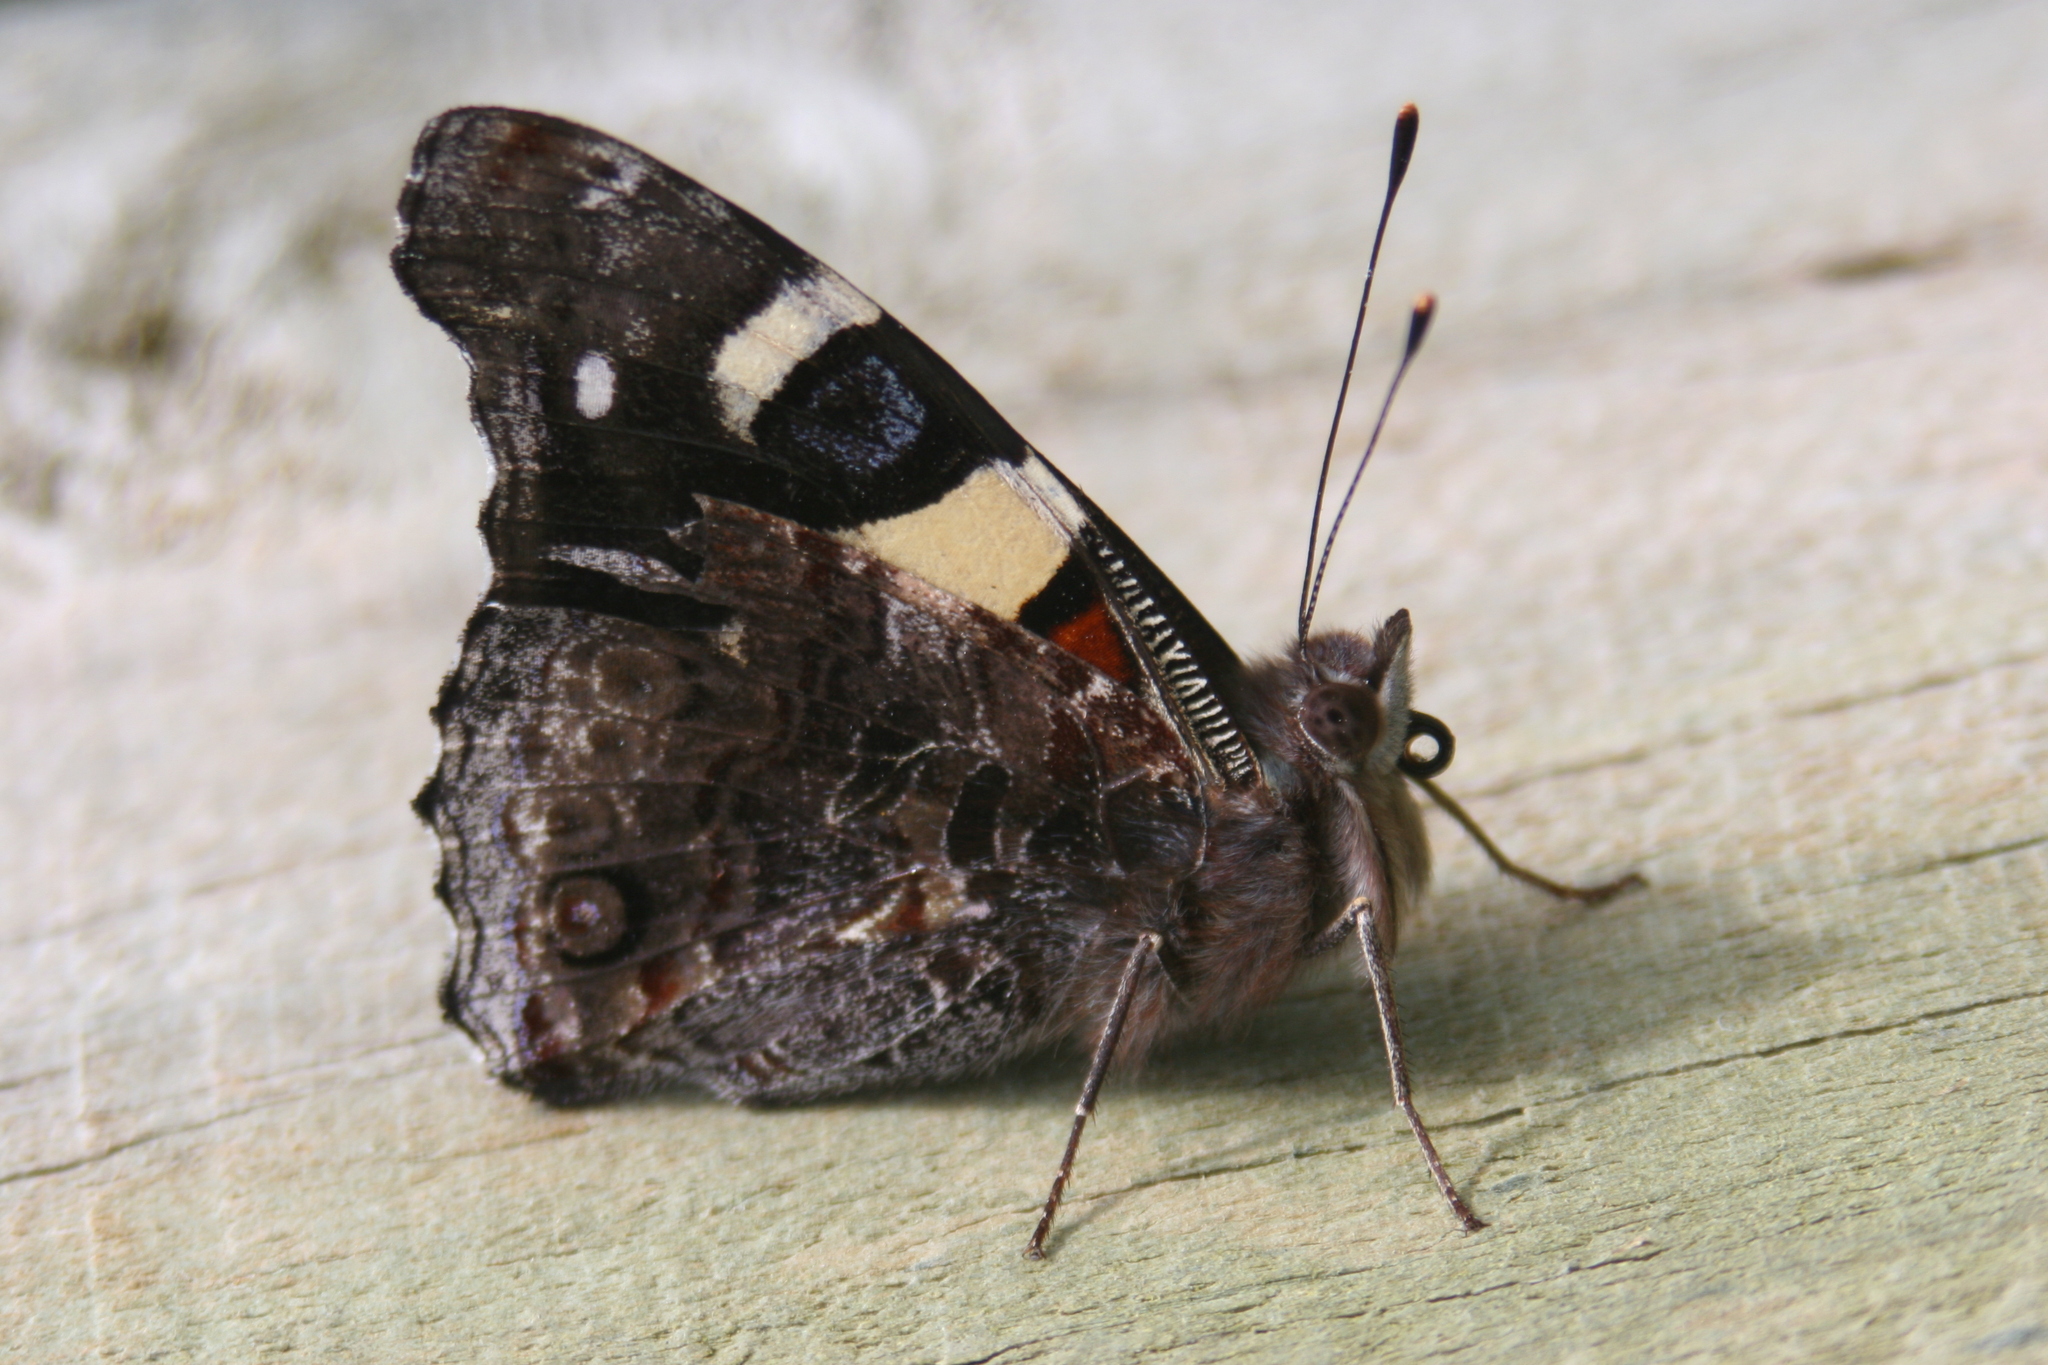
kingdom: Animalia
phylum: Arthropoda
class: Insecta
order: Lepidoptera
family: Nymphalidae
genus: Vanessa
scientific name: Vanessa itea
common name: Yellow admiral
